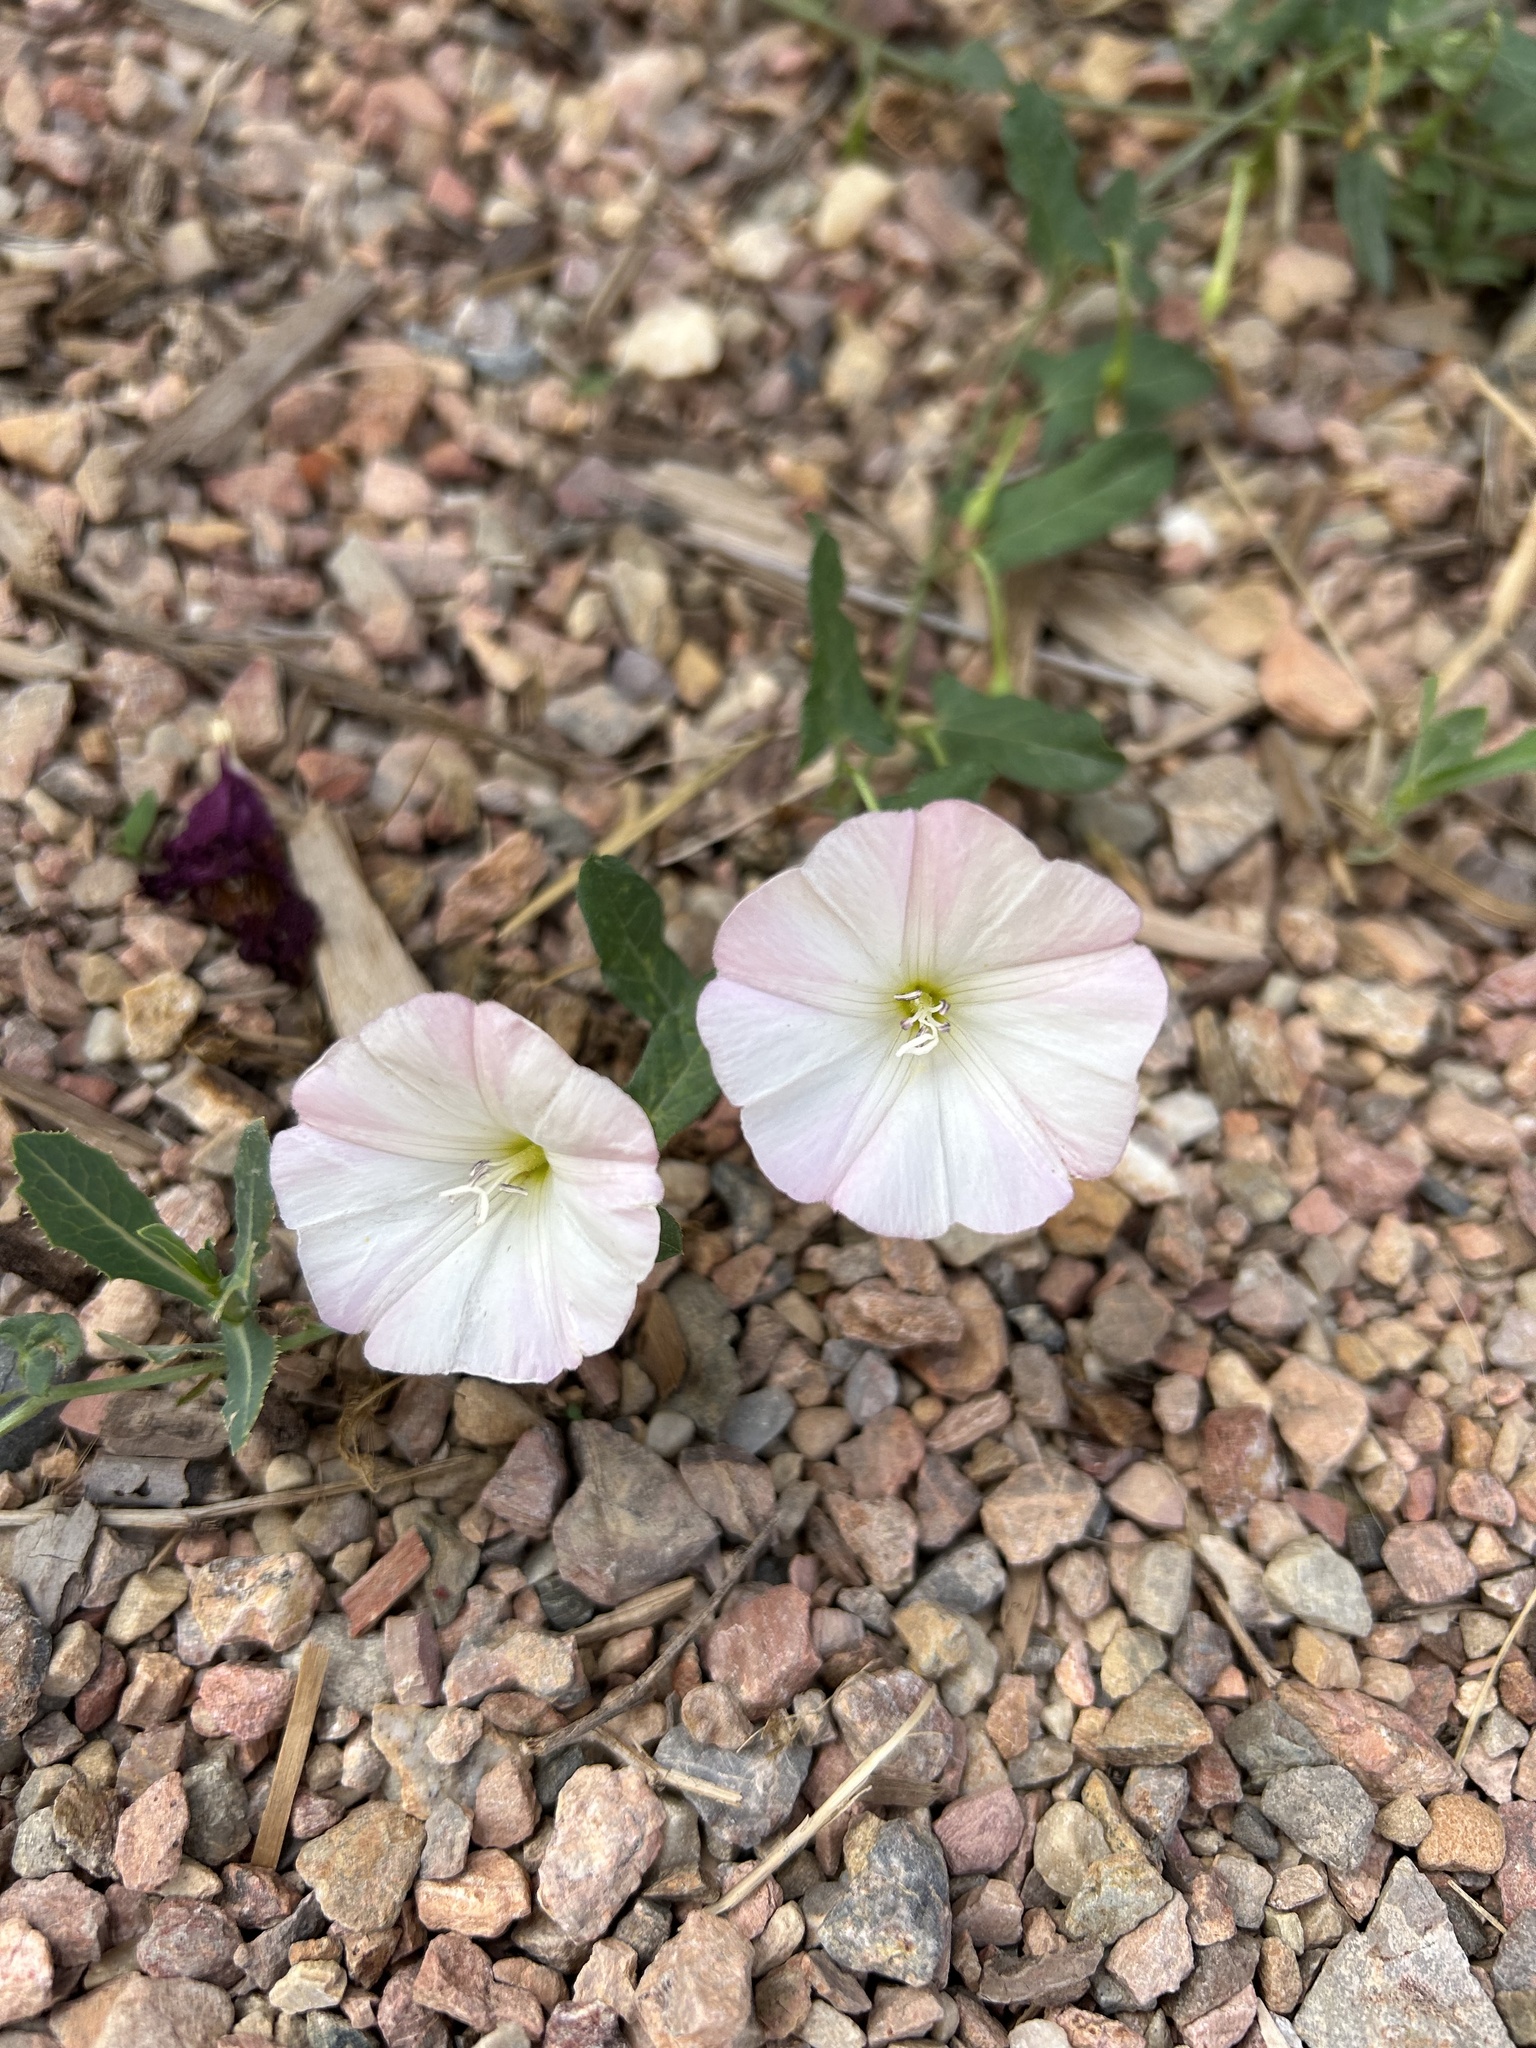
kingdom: Plantae
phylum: Tracheophyta
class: Magnoliopsida
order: Solanales
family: Convolvulaceae
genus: Convolvulus
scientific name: Convolvulus arvensis
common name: Field bindweed
